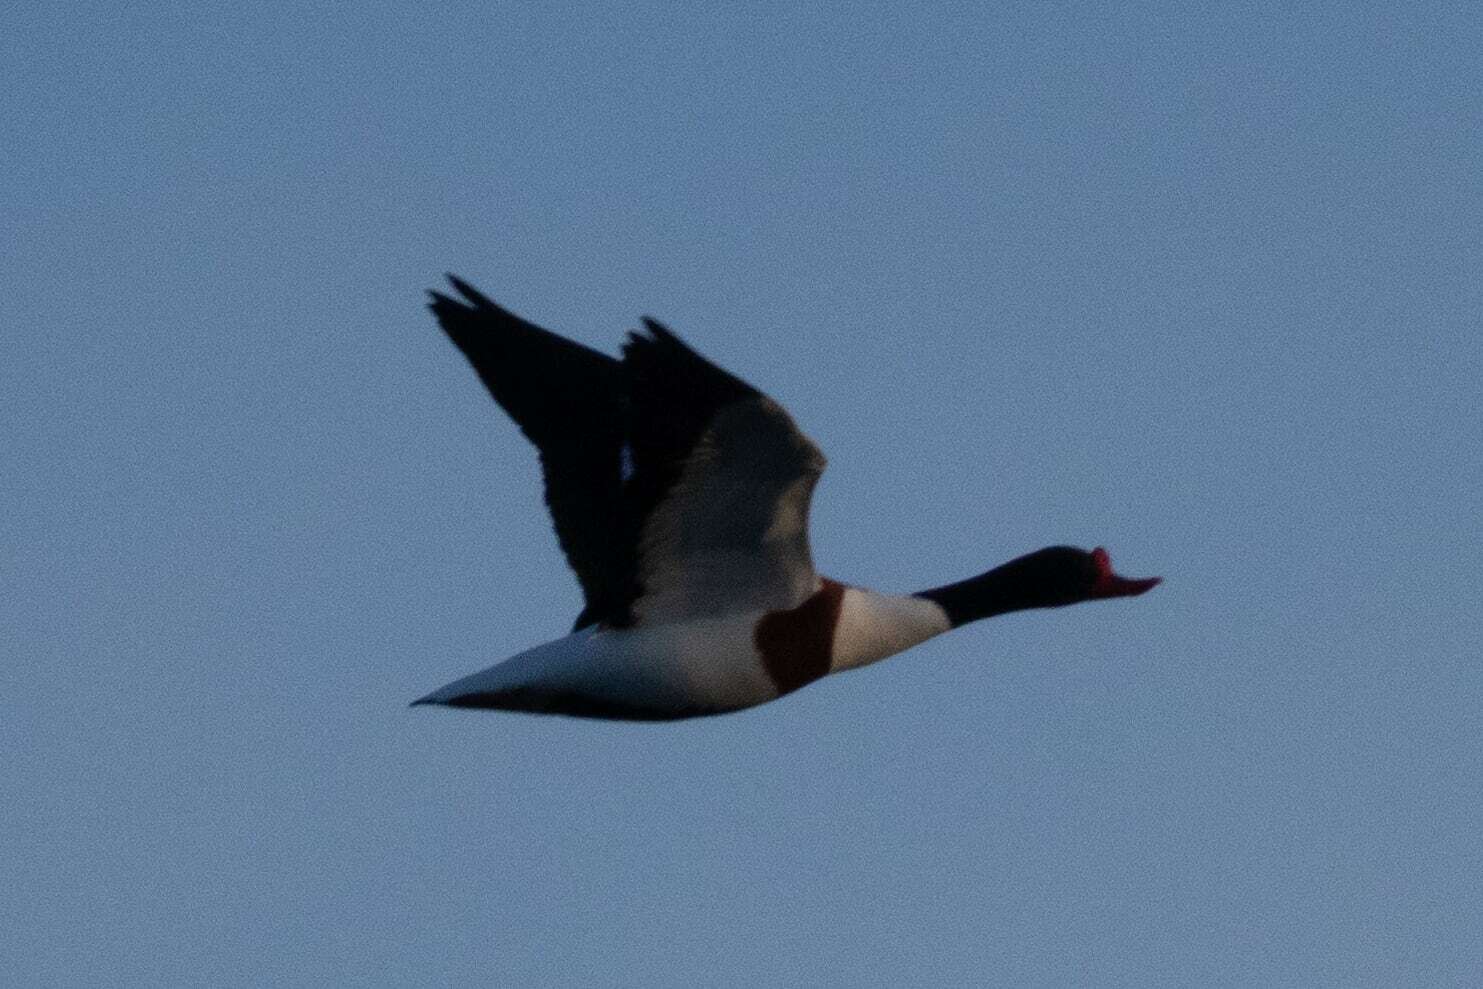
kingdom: Animalia
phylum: Chordata
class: Aves
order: Anseriformes
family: Anatidae
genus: Tadorna
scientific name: Tadorna tadorna
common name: Common shelduck
